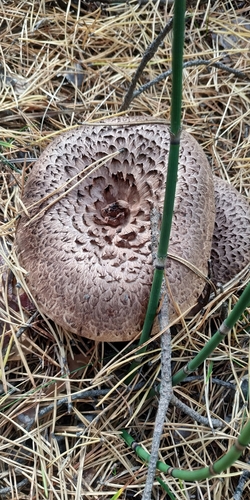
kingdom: Fungi
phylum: Basidiomycota
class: Agaricomycetes
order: Thelephorales
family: Bankeraceae
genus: Sarcodon
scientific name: Sarcodon imbricatus
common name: Shingled hedgehog
